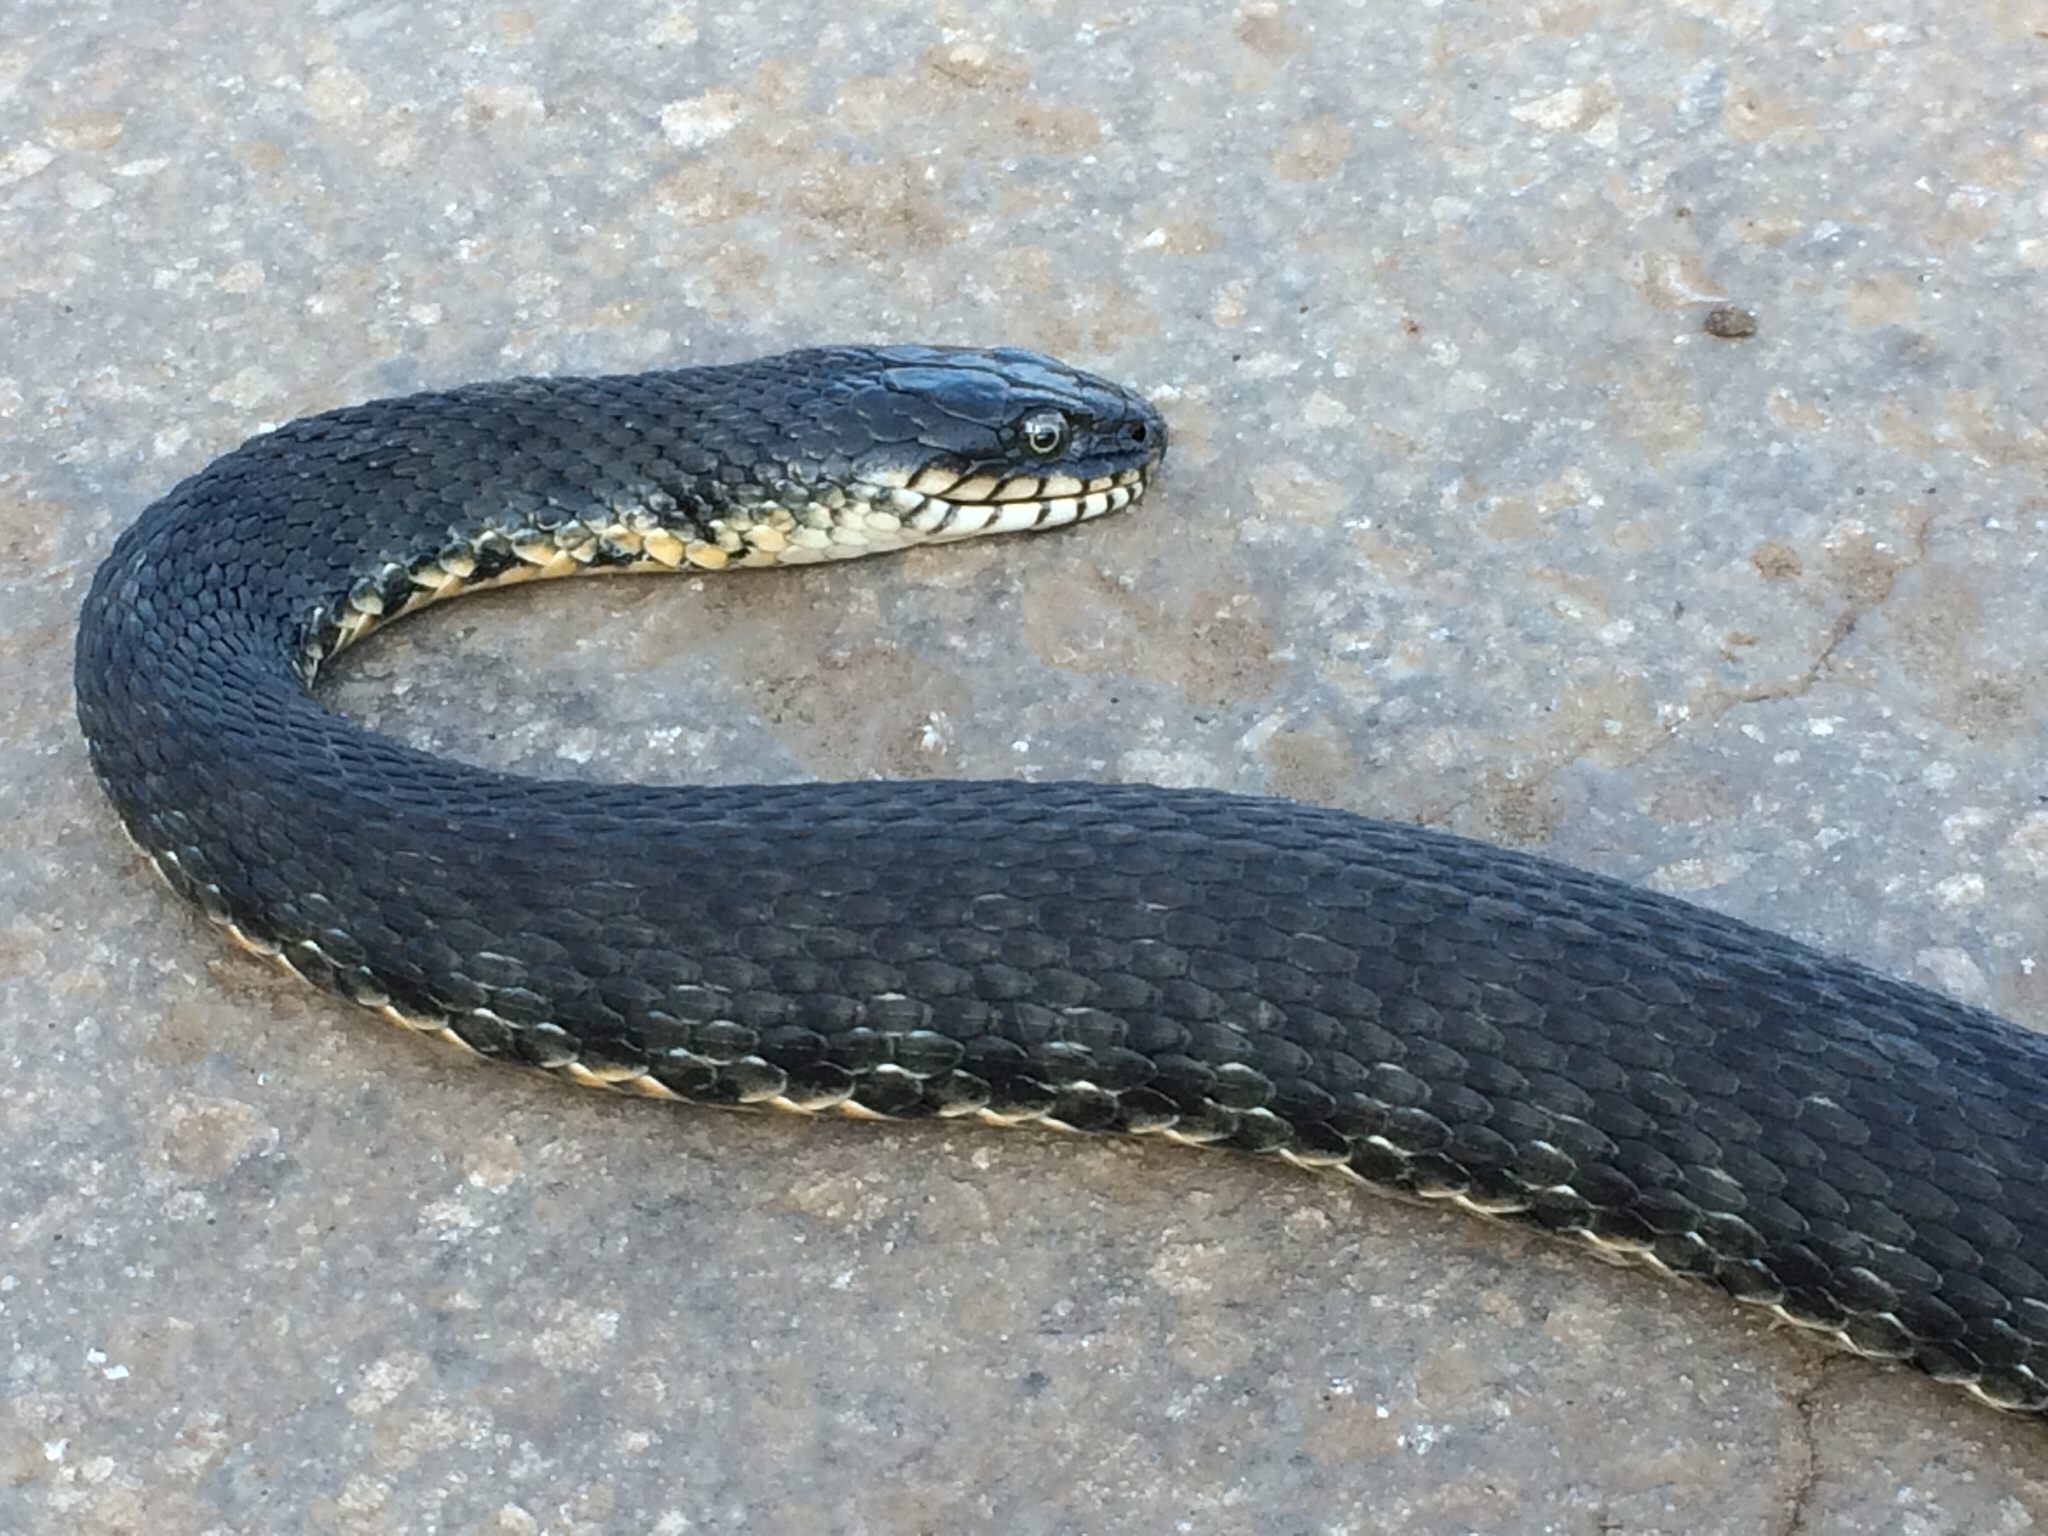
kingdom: Animalia
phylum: Chordata
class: Squamata
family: Colubridae
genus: Natrix
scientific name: Natrix tessellata
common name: Dice snake
